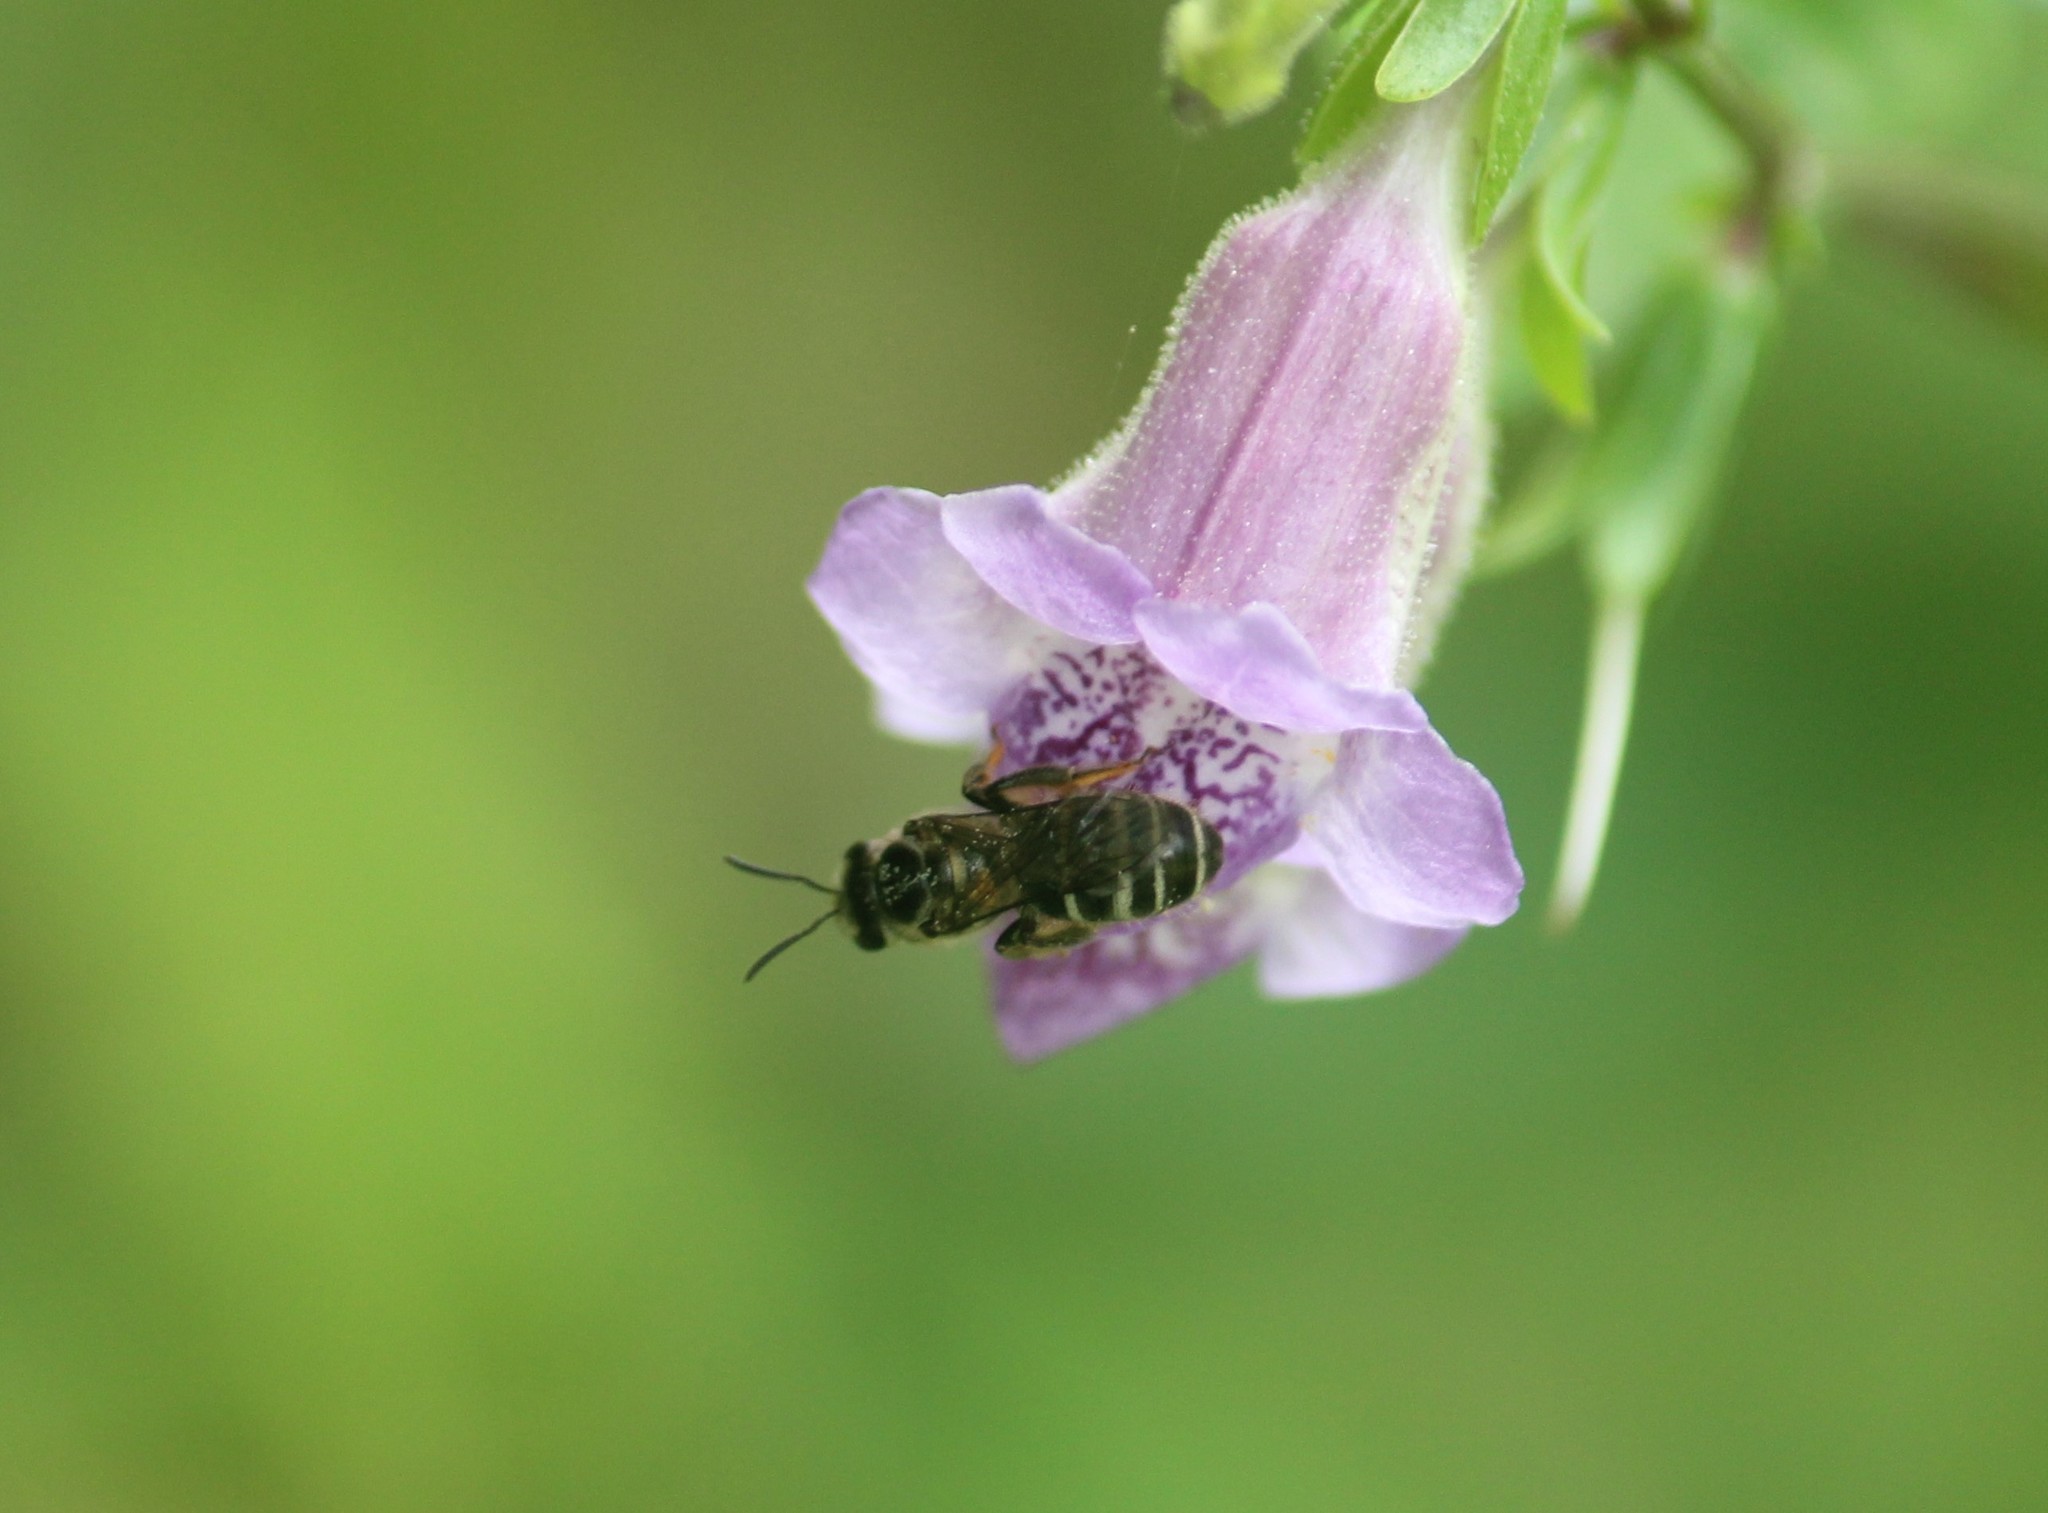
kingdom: Animalia
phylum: Arthropoda
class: Insecta
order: Hymenoptera
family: Halictidae
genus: Lasioglossum
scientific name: Lasioglossum albescens
